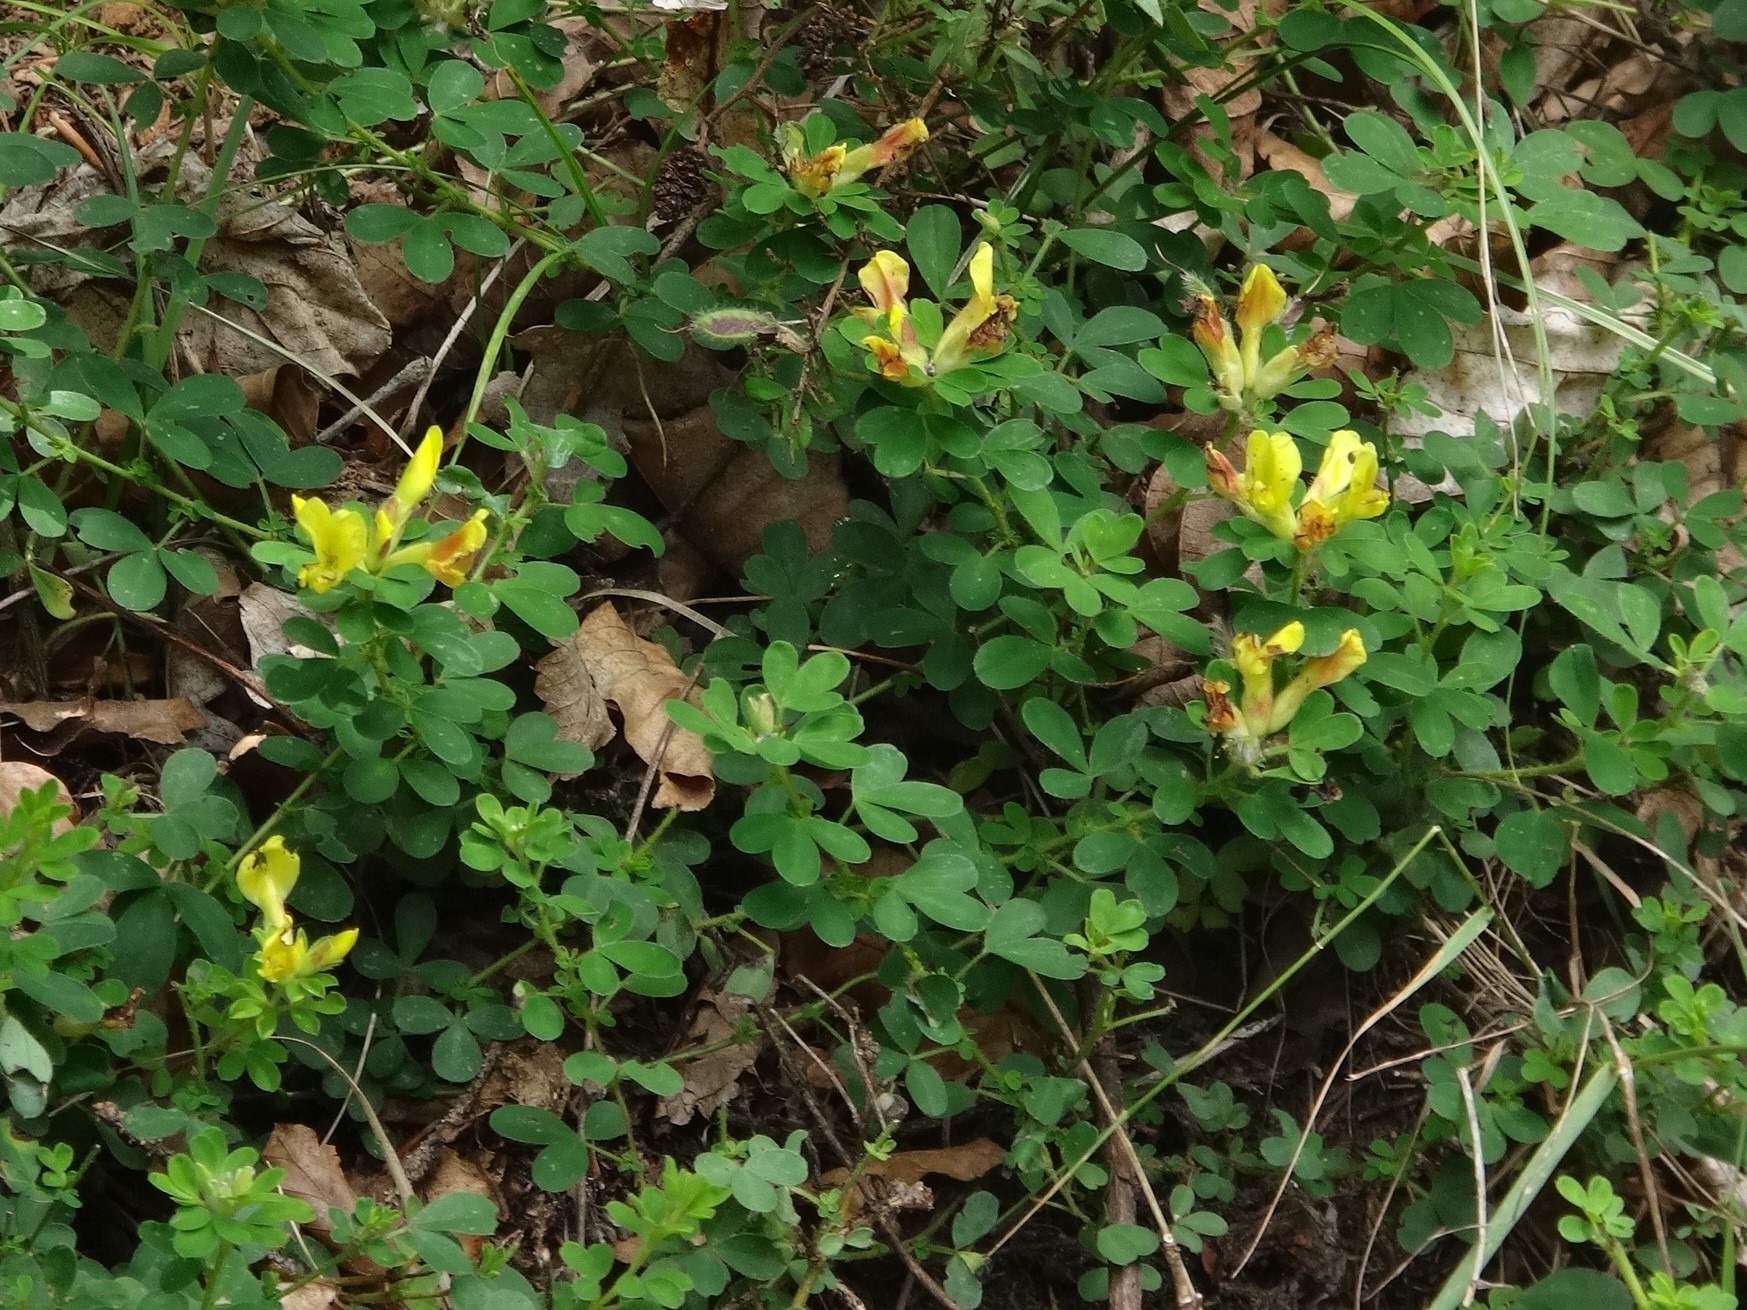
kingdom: Plantae
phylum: Tracheophyta
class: Magnoliopsida
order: Fabales
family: Fabaceae
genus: Chamaecytisus
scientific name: Chamaecytisus hirsutus
